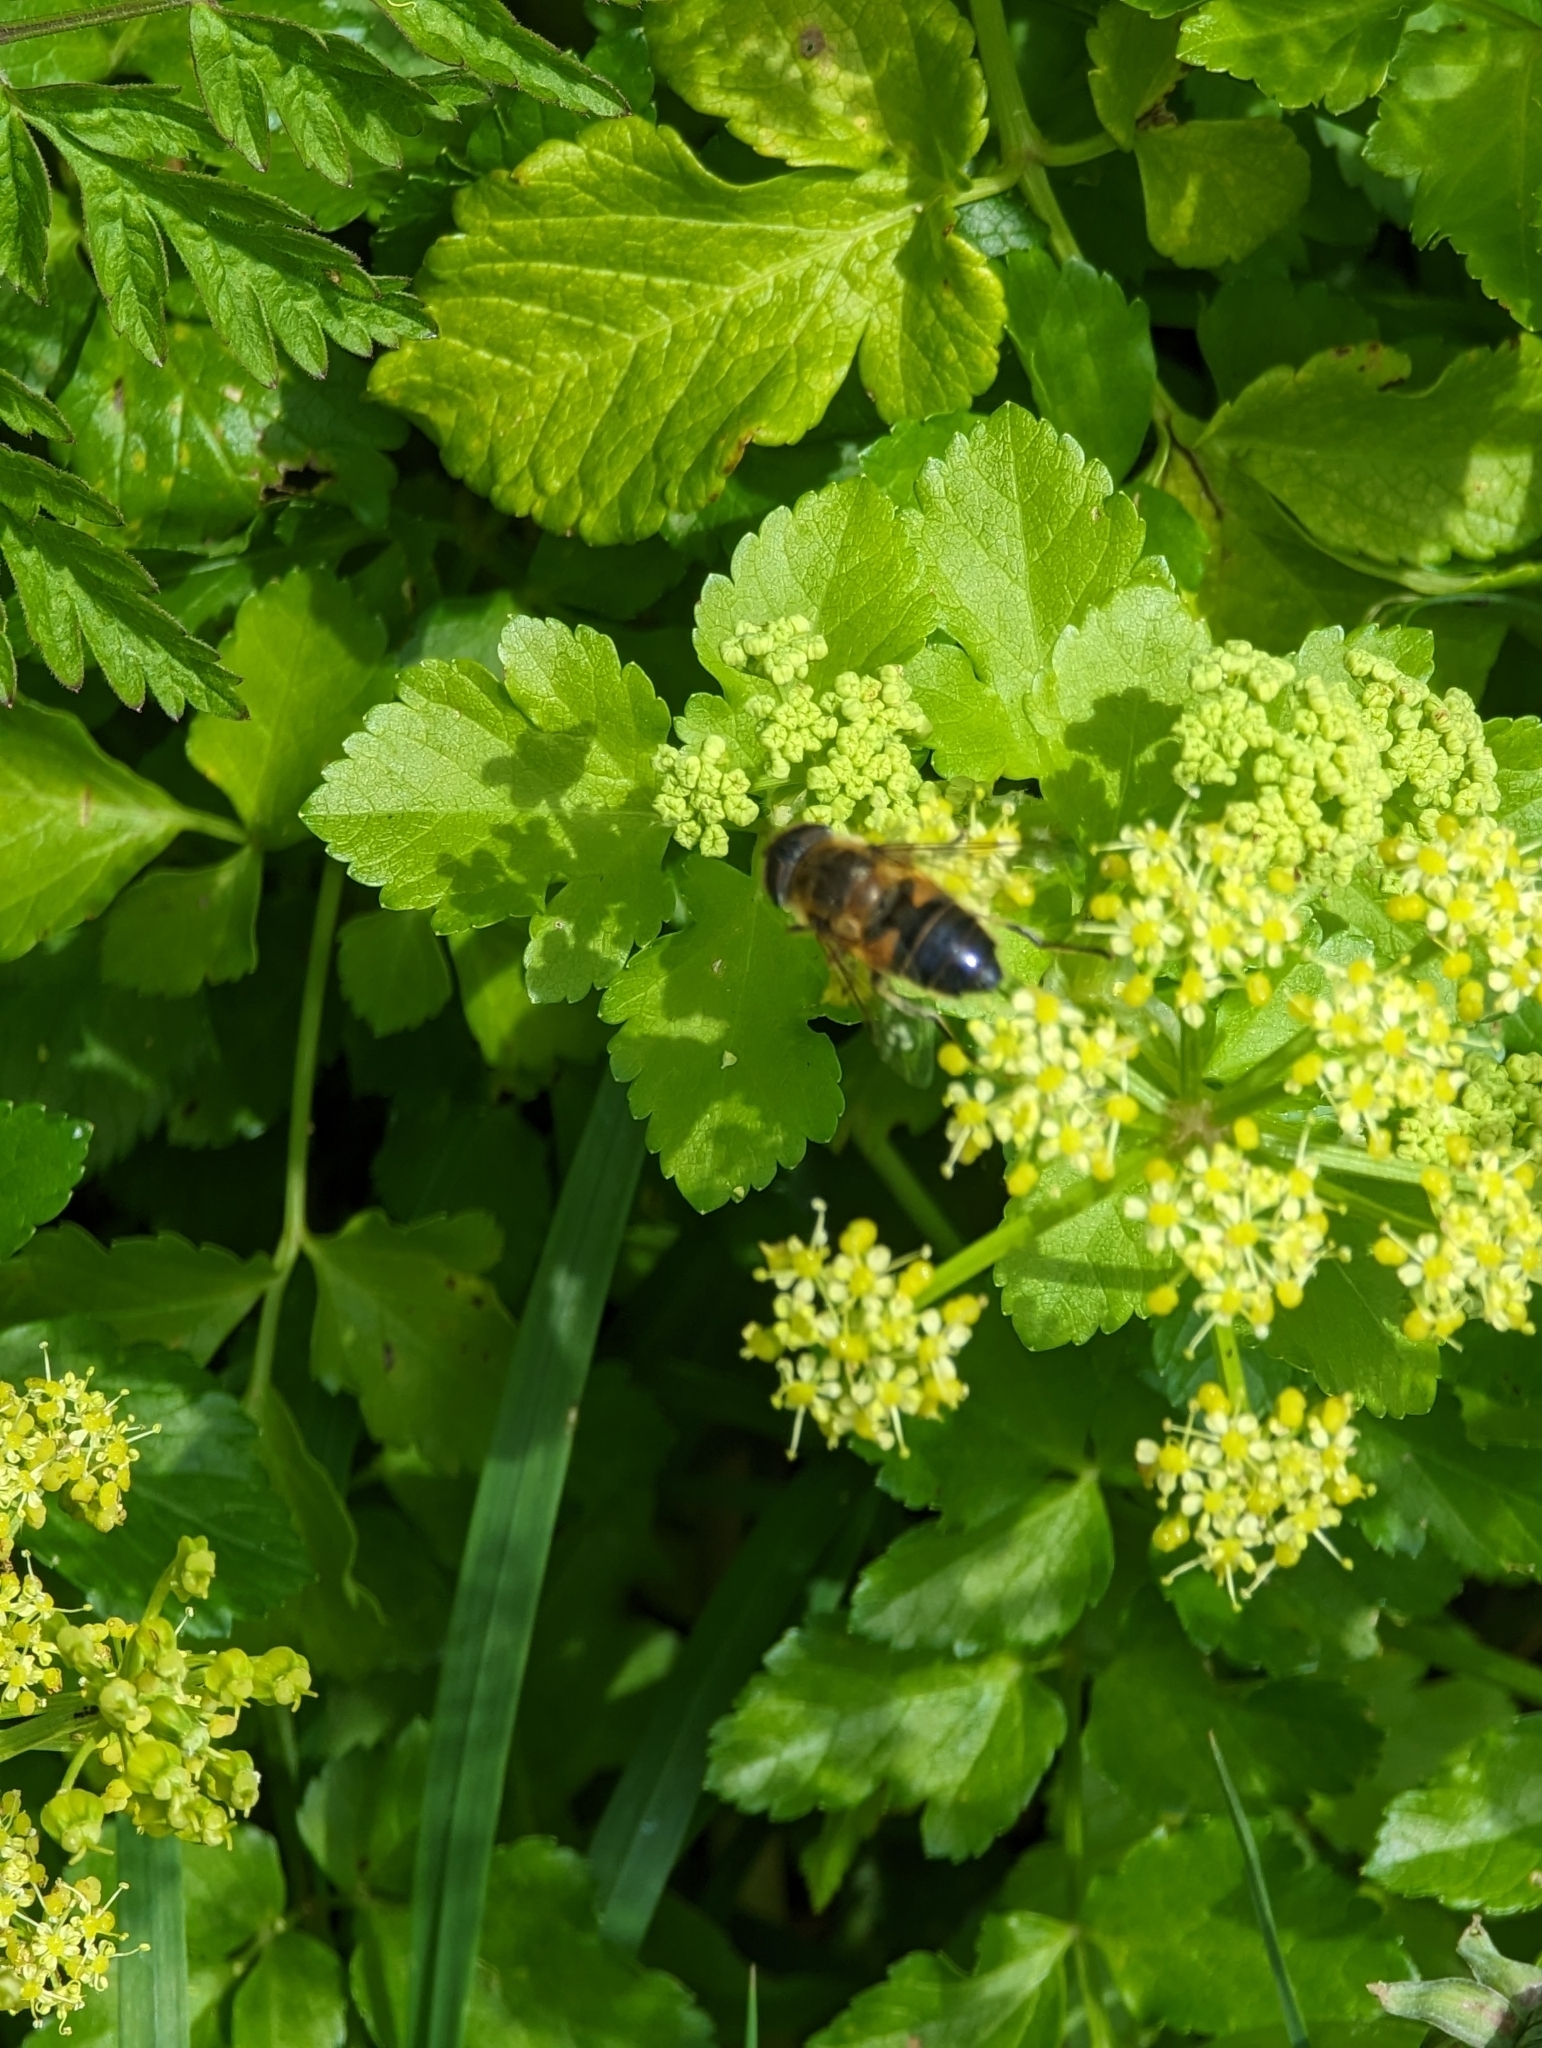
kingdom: Animalia
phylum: Arthropoda
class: Insecta
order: Diptera
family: Syrphidae
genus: Eristalis
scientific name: Eristalis
